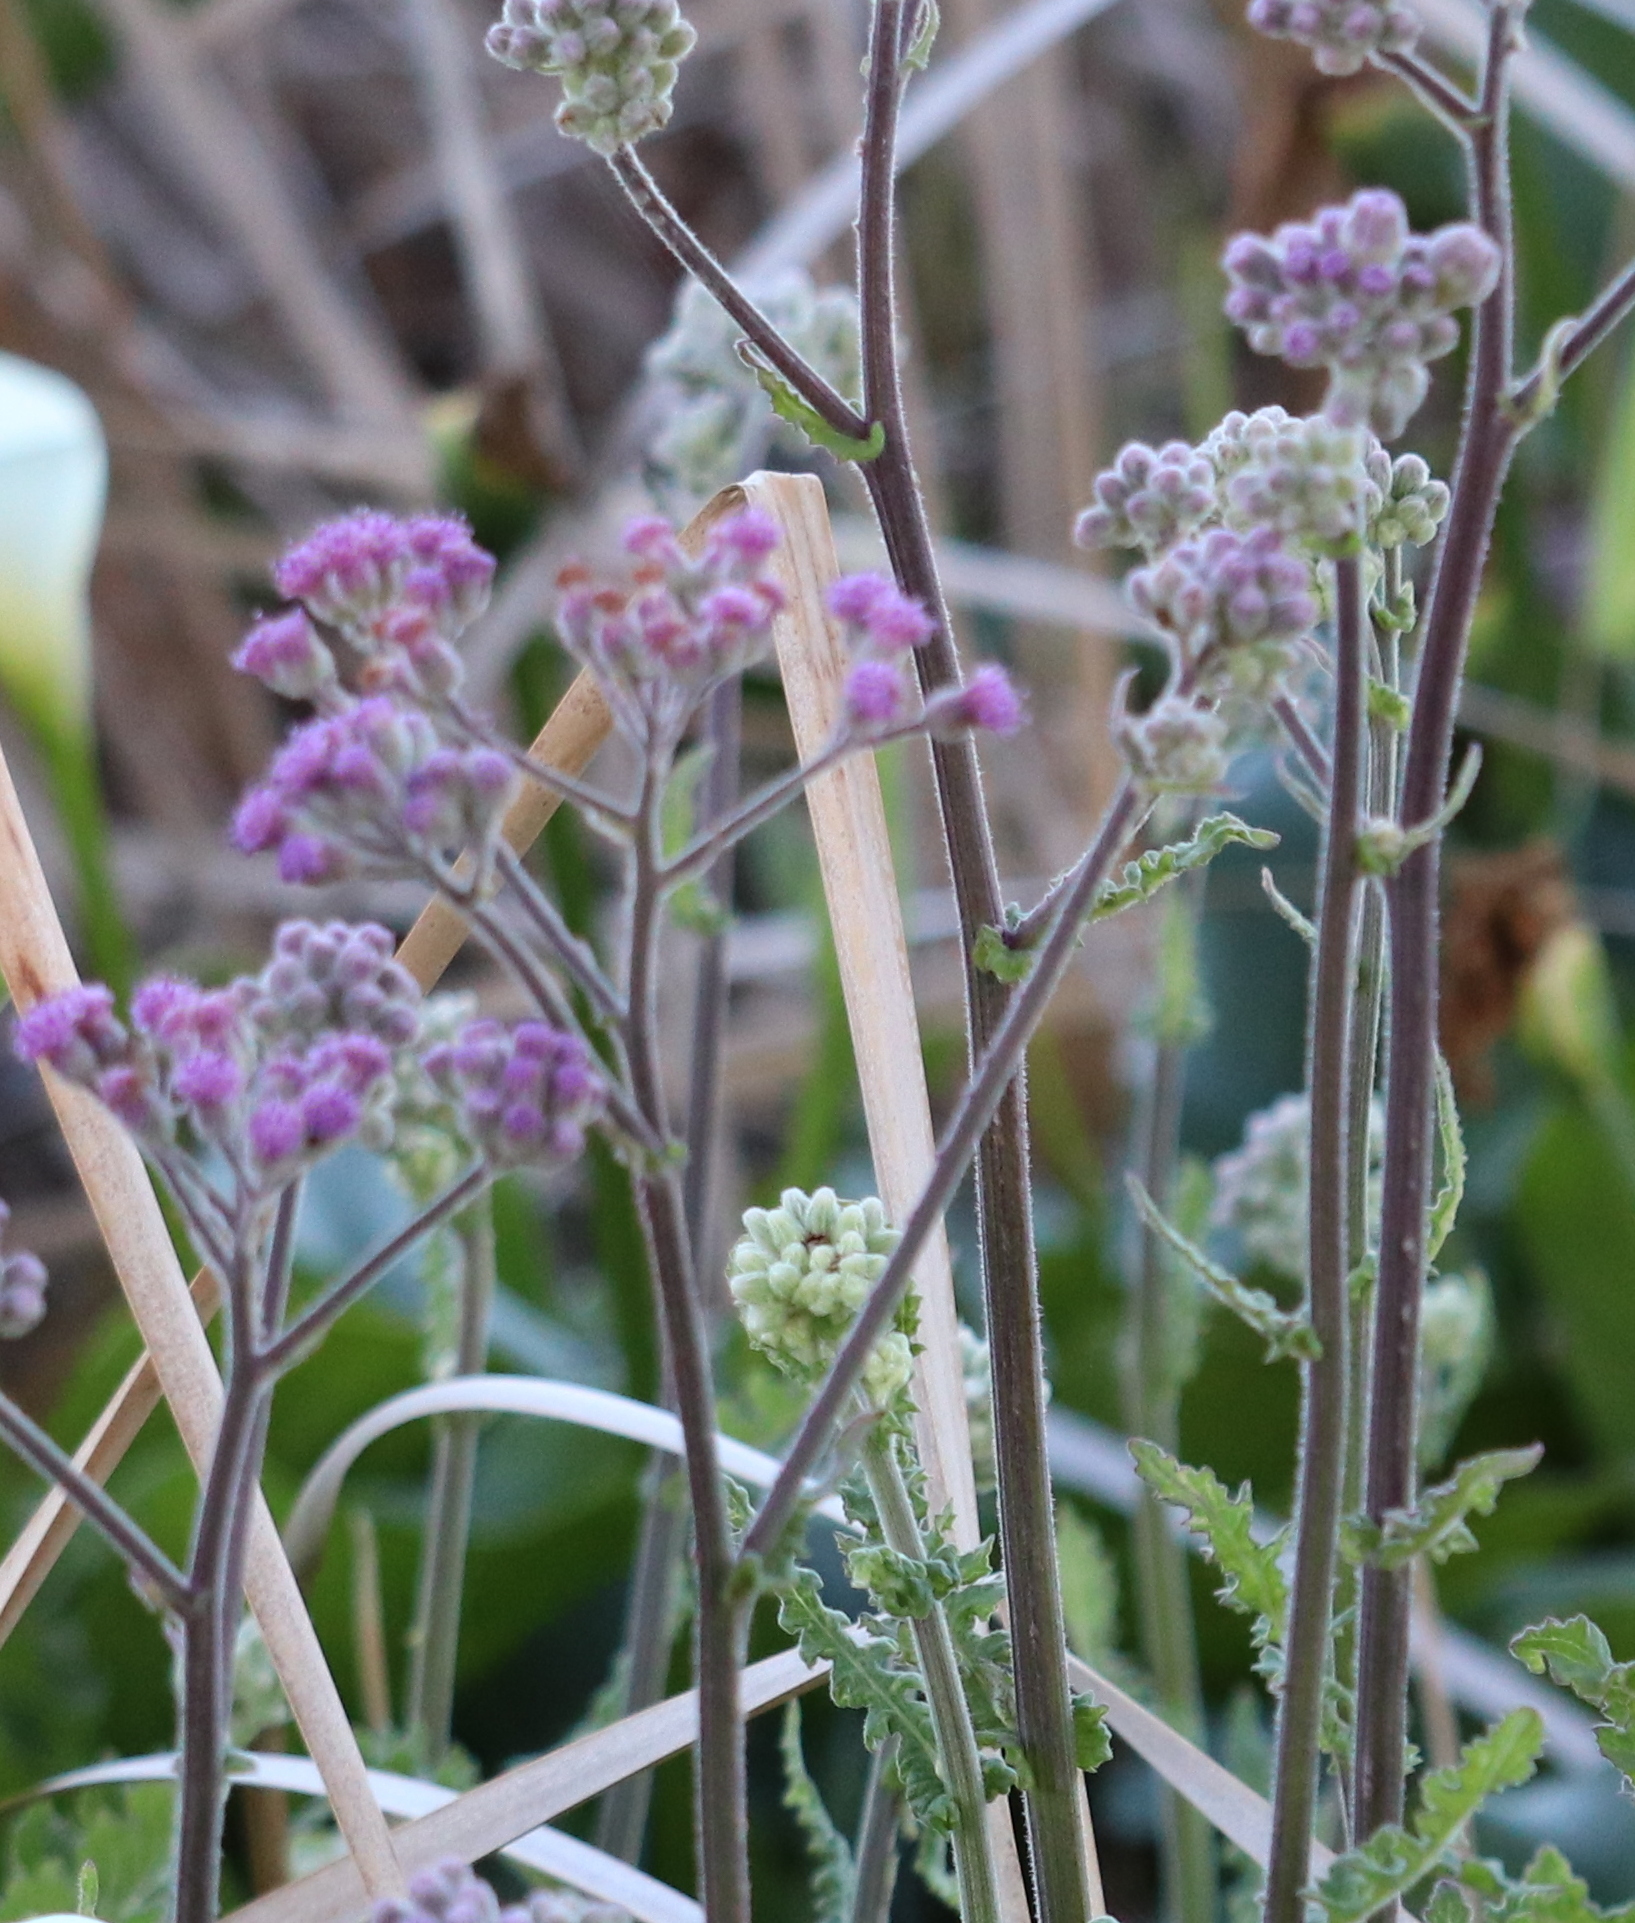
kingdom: Plantae
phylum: Tracheophyta
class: Magnoliopsida
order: Asterales
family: Asteraceae
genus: Senecio
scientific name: Senecio purpureus
